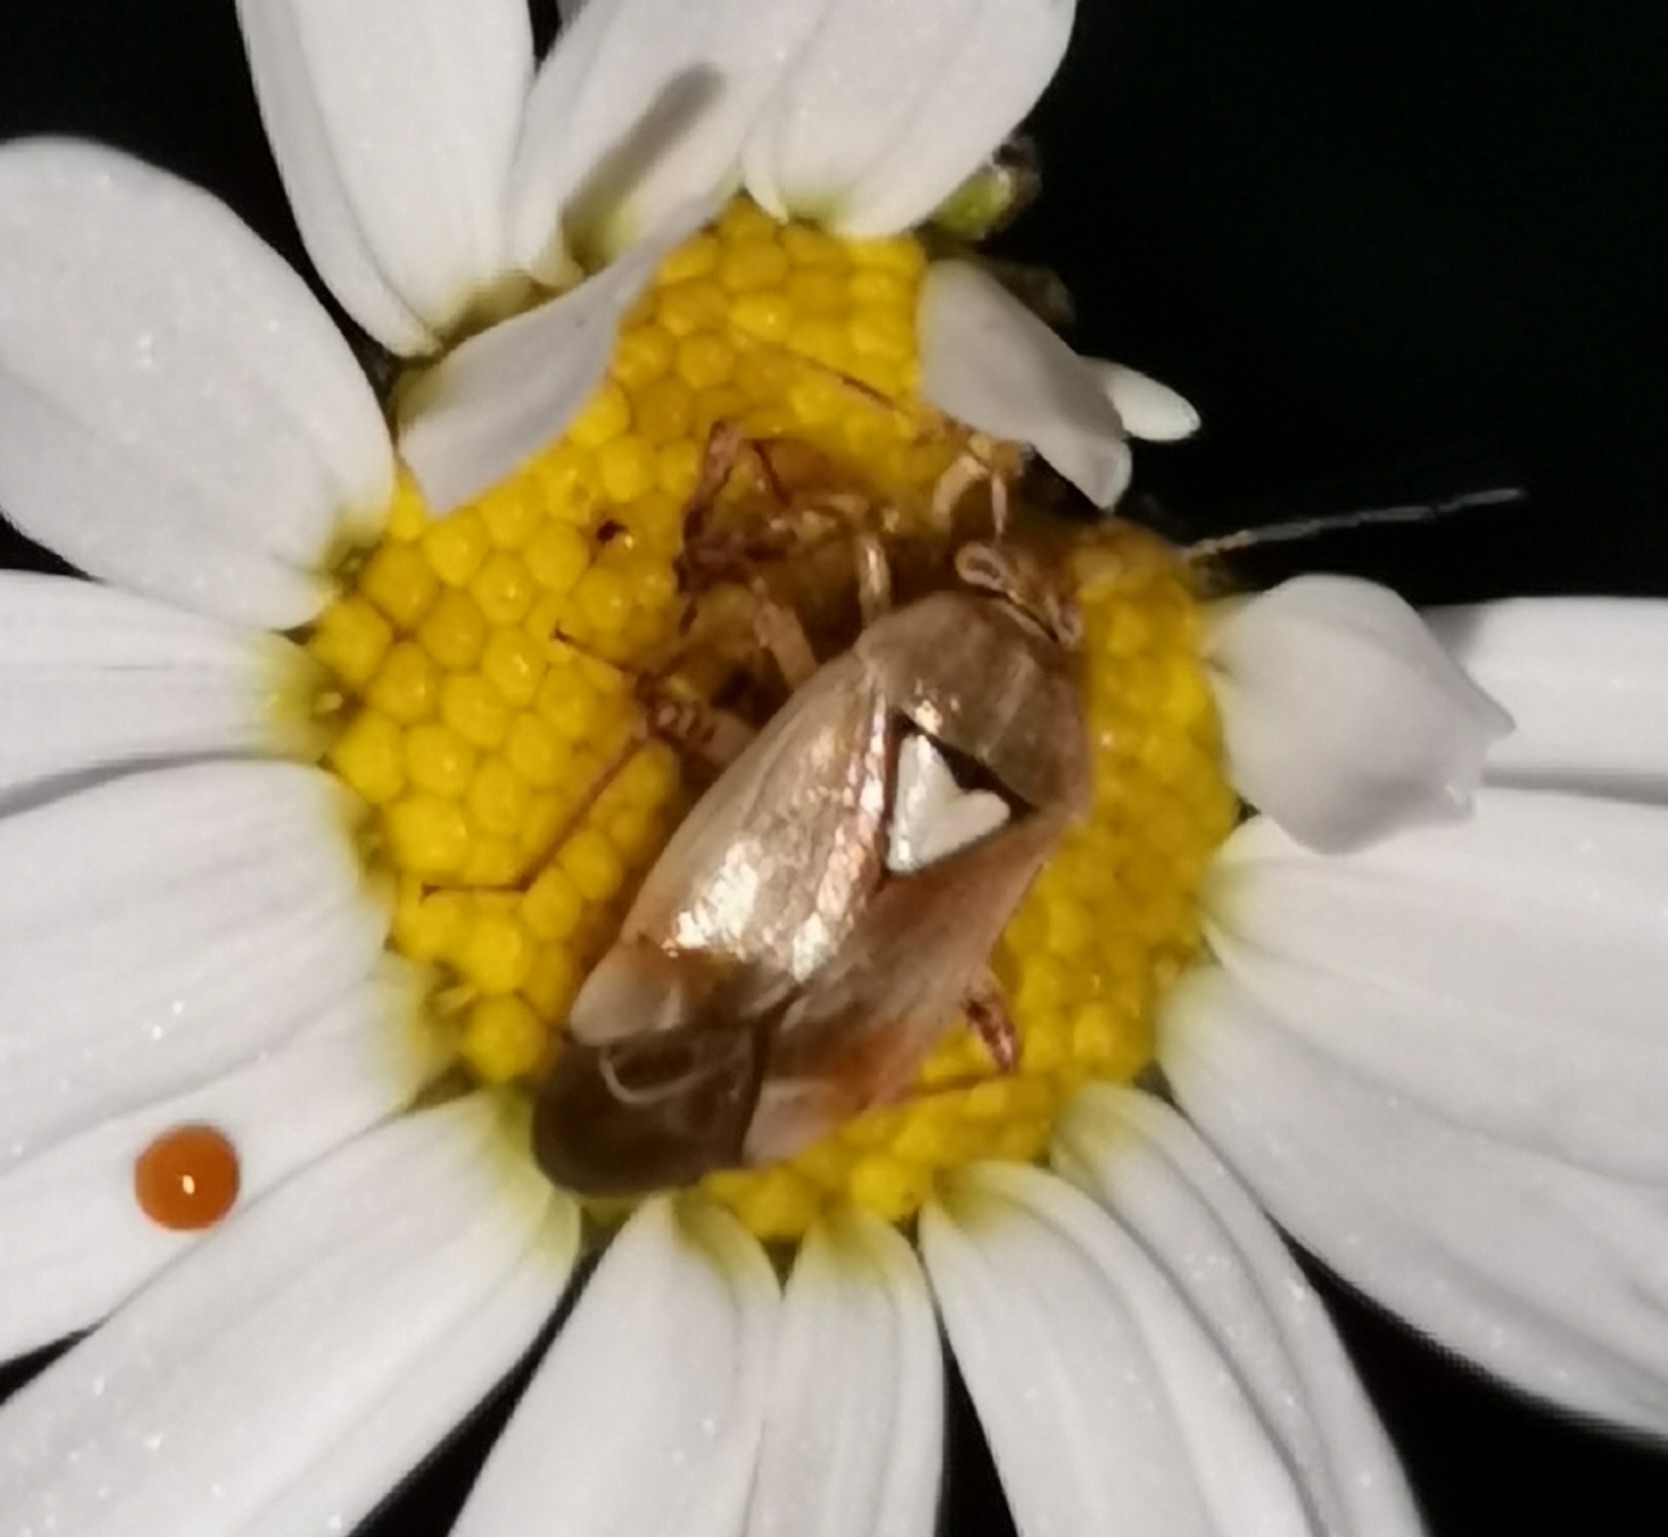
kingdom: Animalia
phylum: Arthropoda
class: Insecta
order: Hemiptera
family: Miridae
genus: Lygus
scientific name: Lygus pratensis
